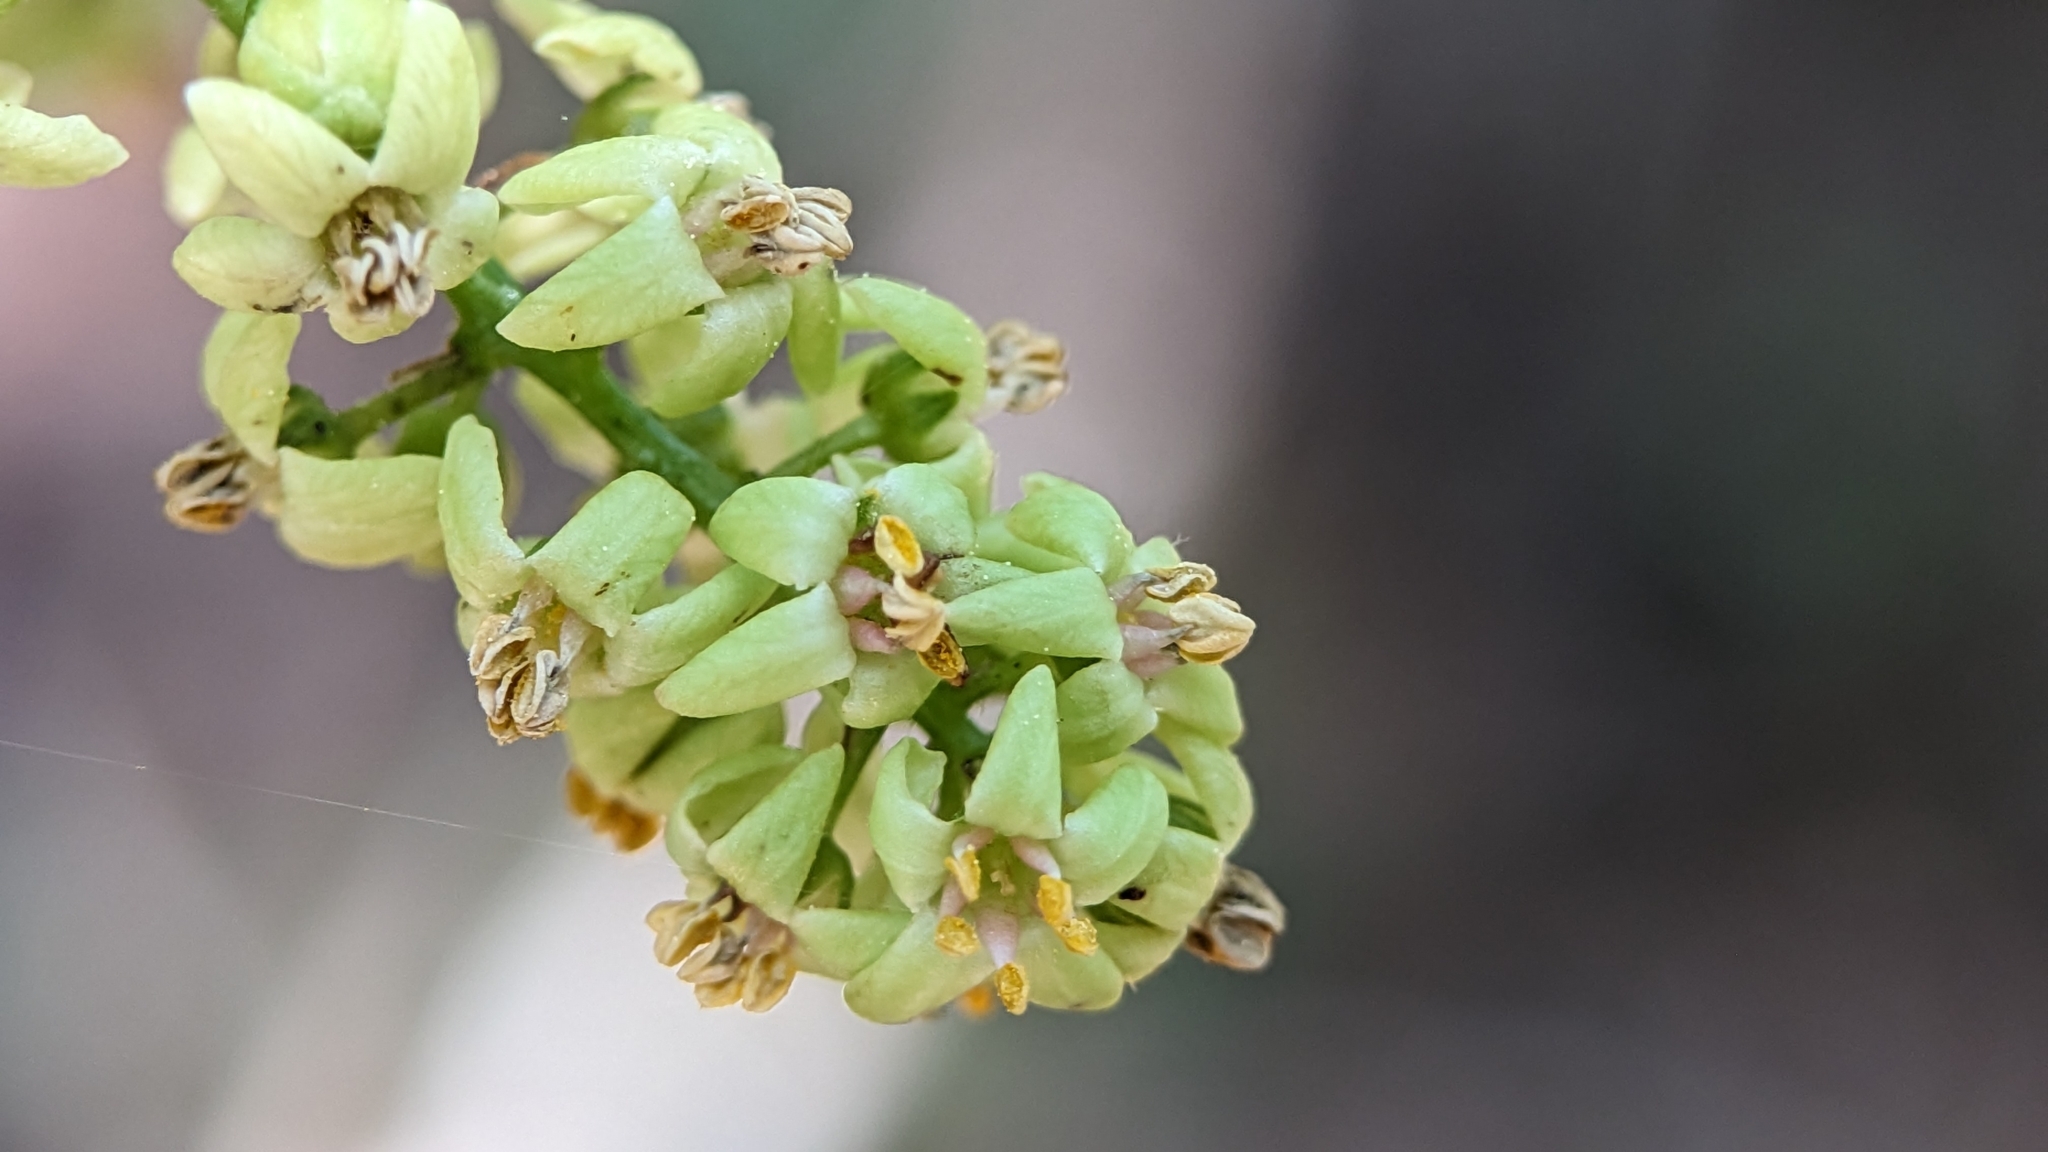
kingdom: Plantae
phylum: Tracheophyta
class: Magnoliopsida
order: Sapindales
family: Anacardiaceae
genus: Toxicodendron
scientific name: Toxicodendron radicans
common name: Poison ivy
